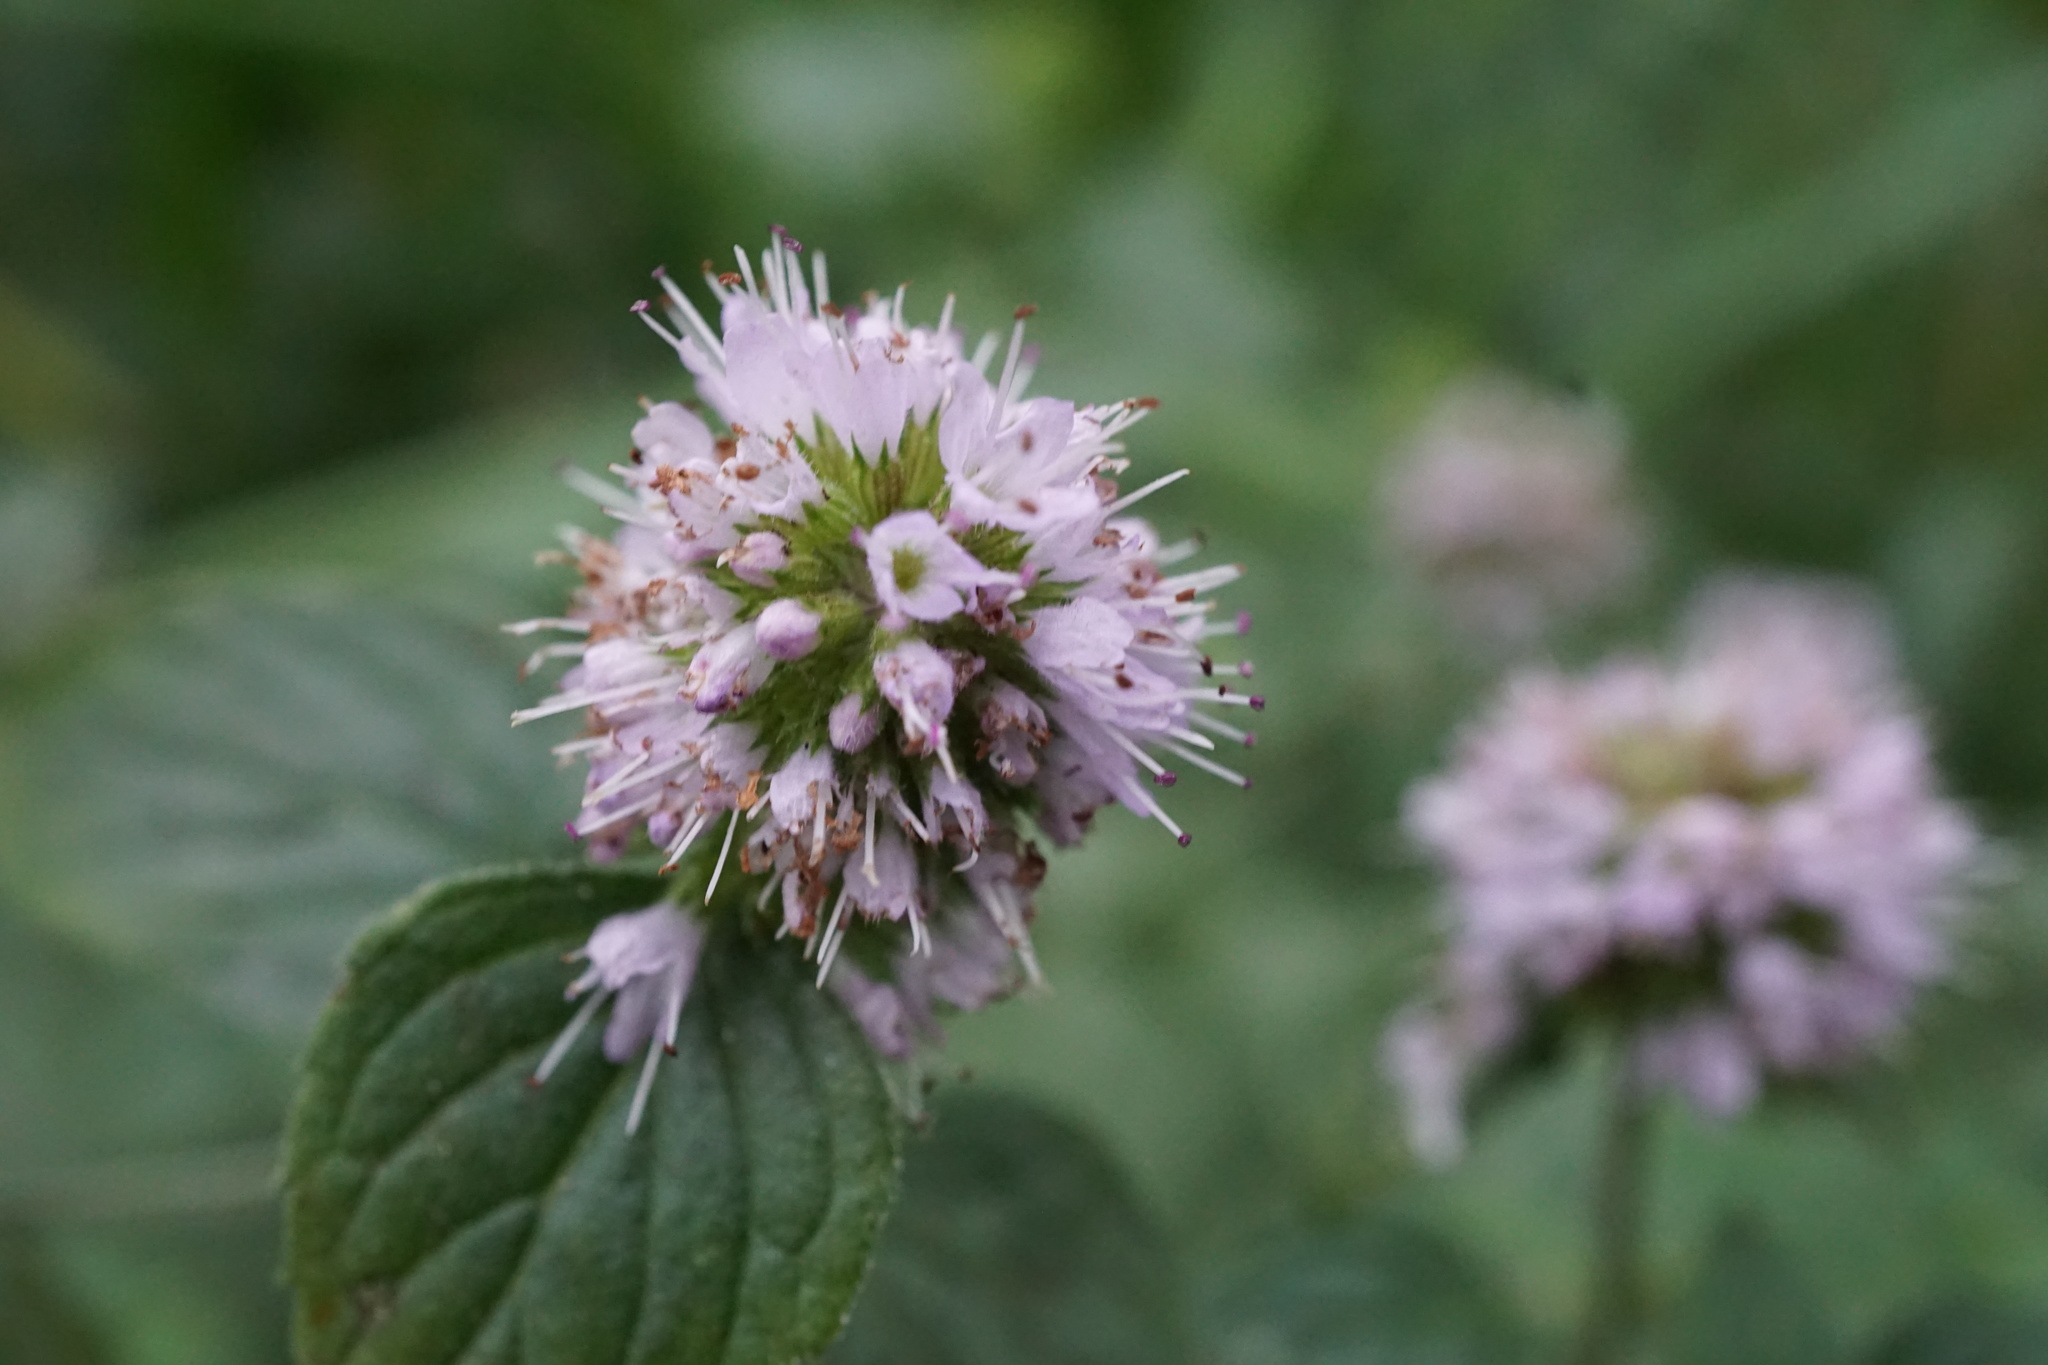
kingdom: Plantae
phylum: Tracheophyta
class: Magnoliopsida
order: Lamiales
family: Lamiaceae
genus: Mentha
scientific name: Mentha aquatica
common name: Water mint
